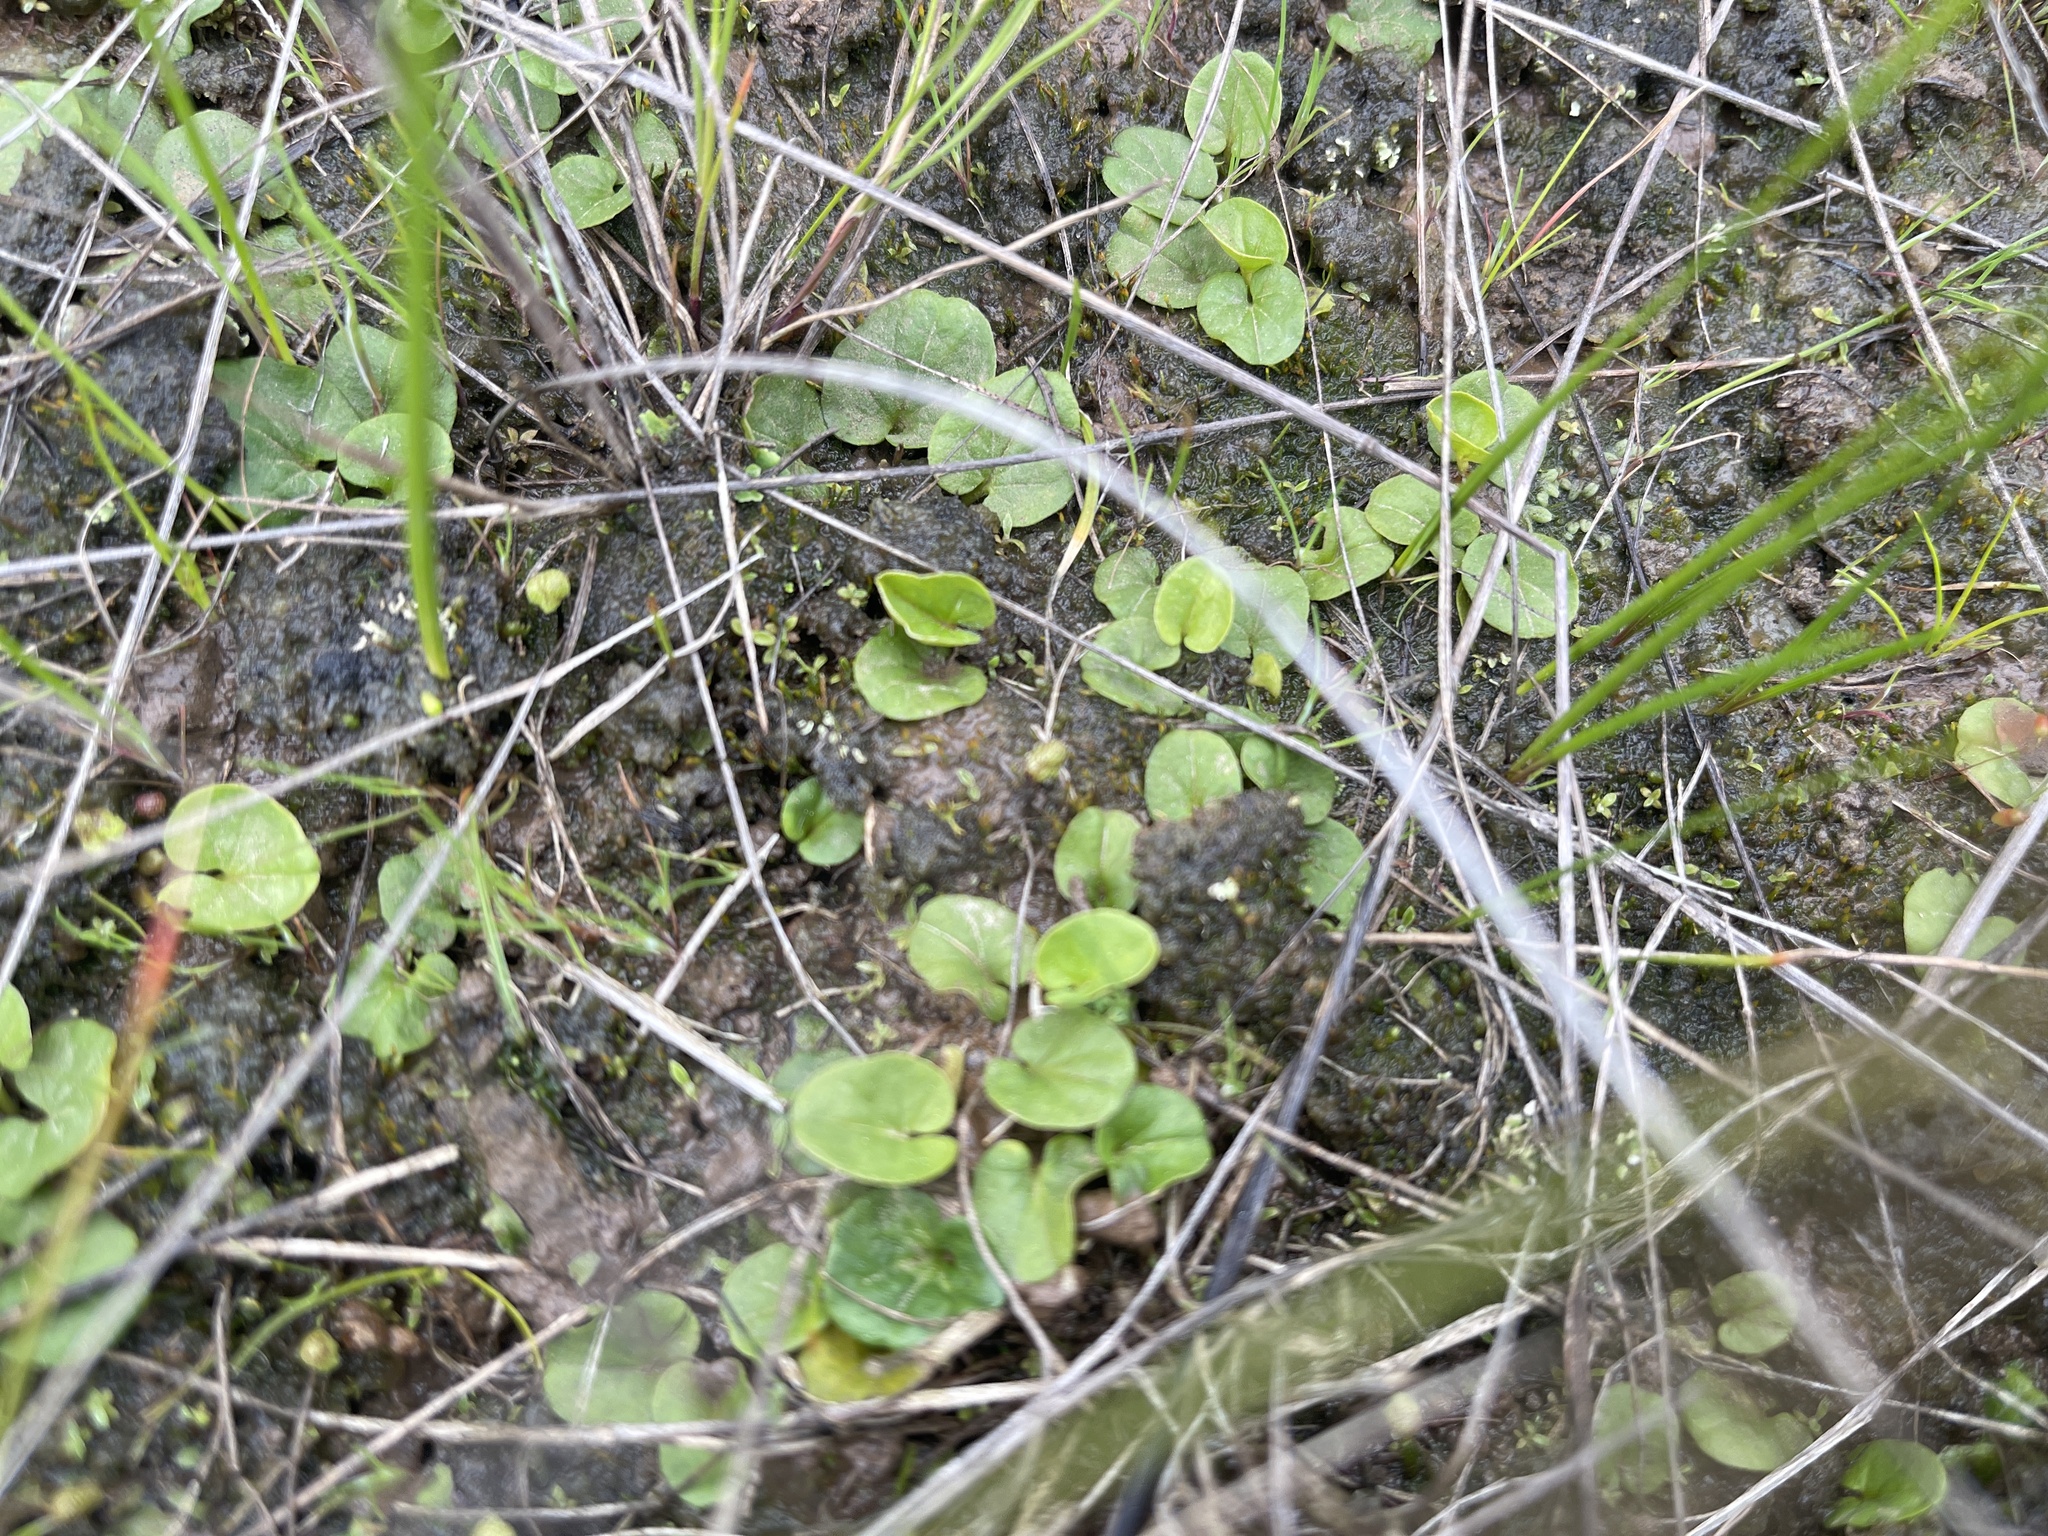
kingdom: Plantae
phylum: Tracheophyta
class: Magnoliopsida
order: Solanales
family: Convolvulaceae
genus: Dichondra
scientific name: Dichondra repens
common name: Kidneyweed
